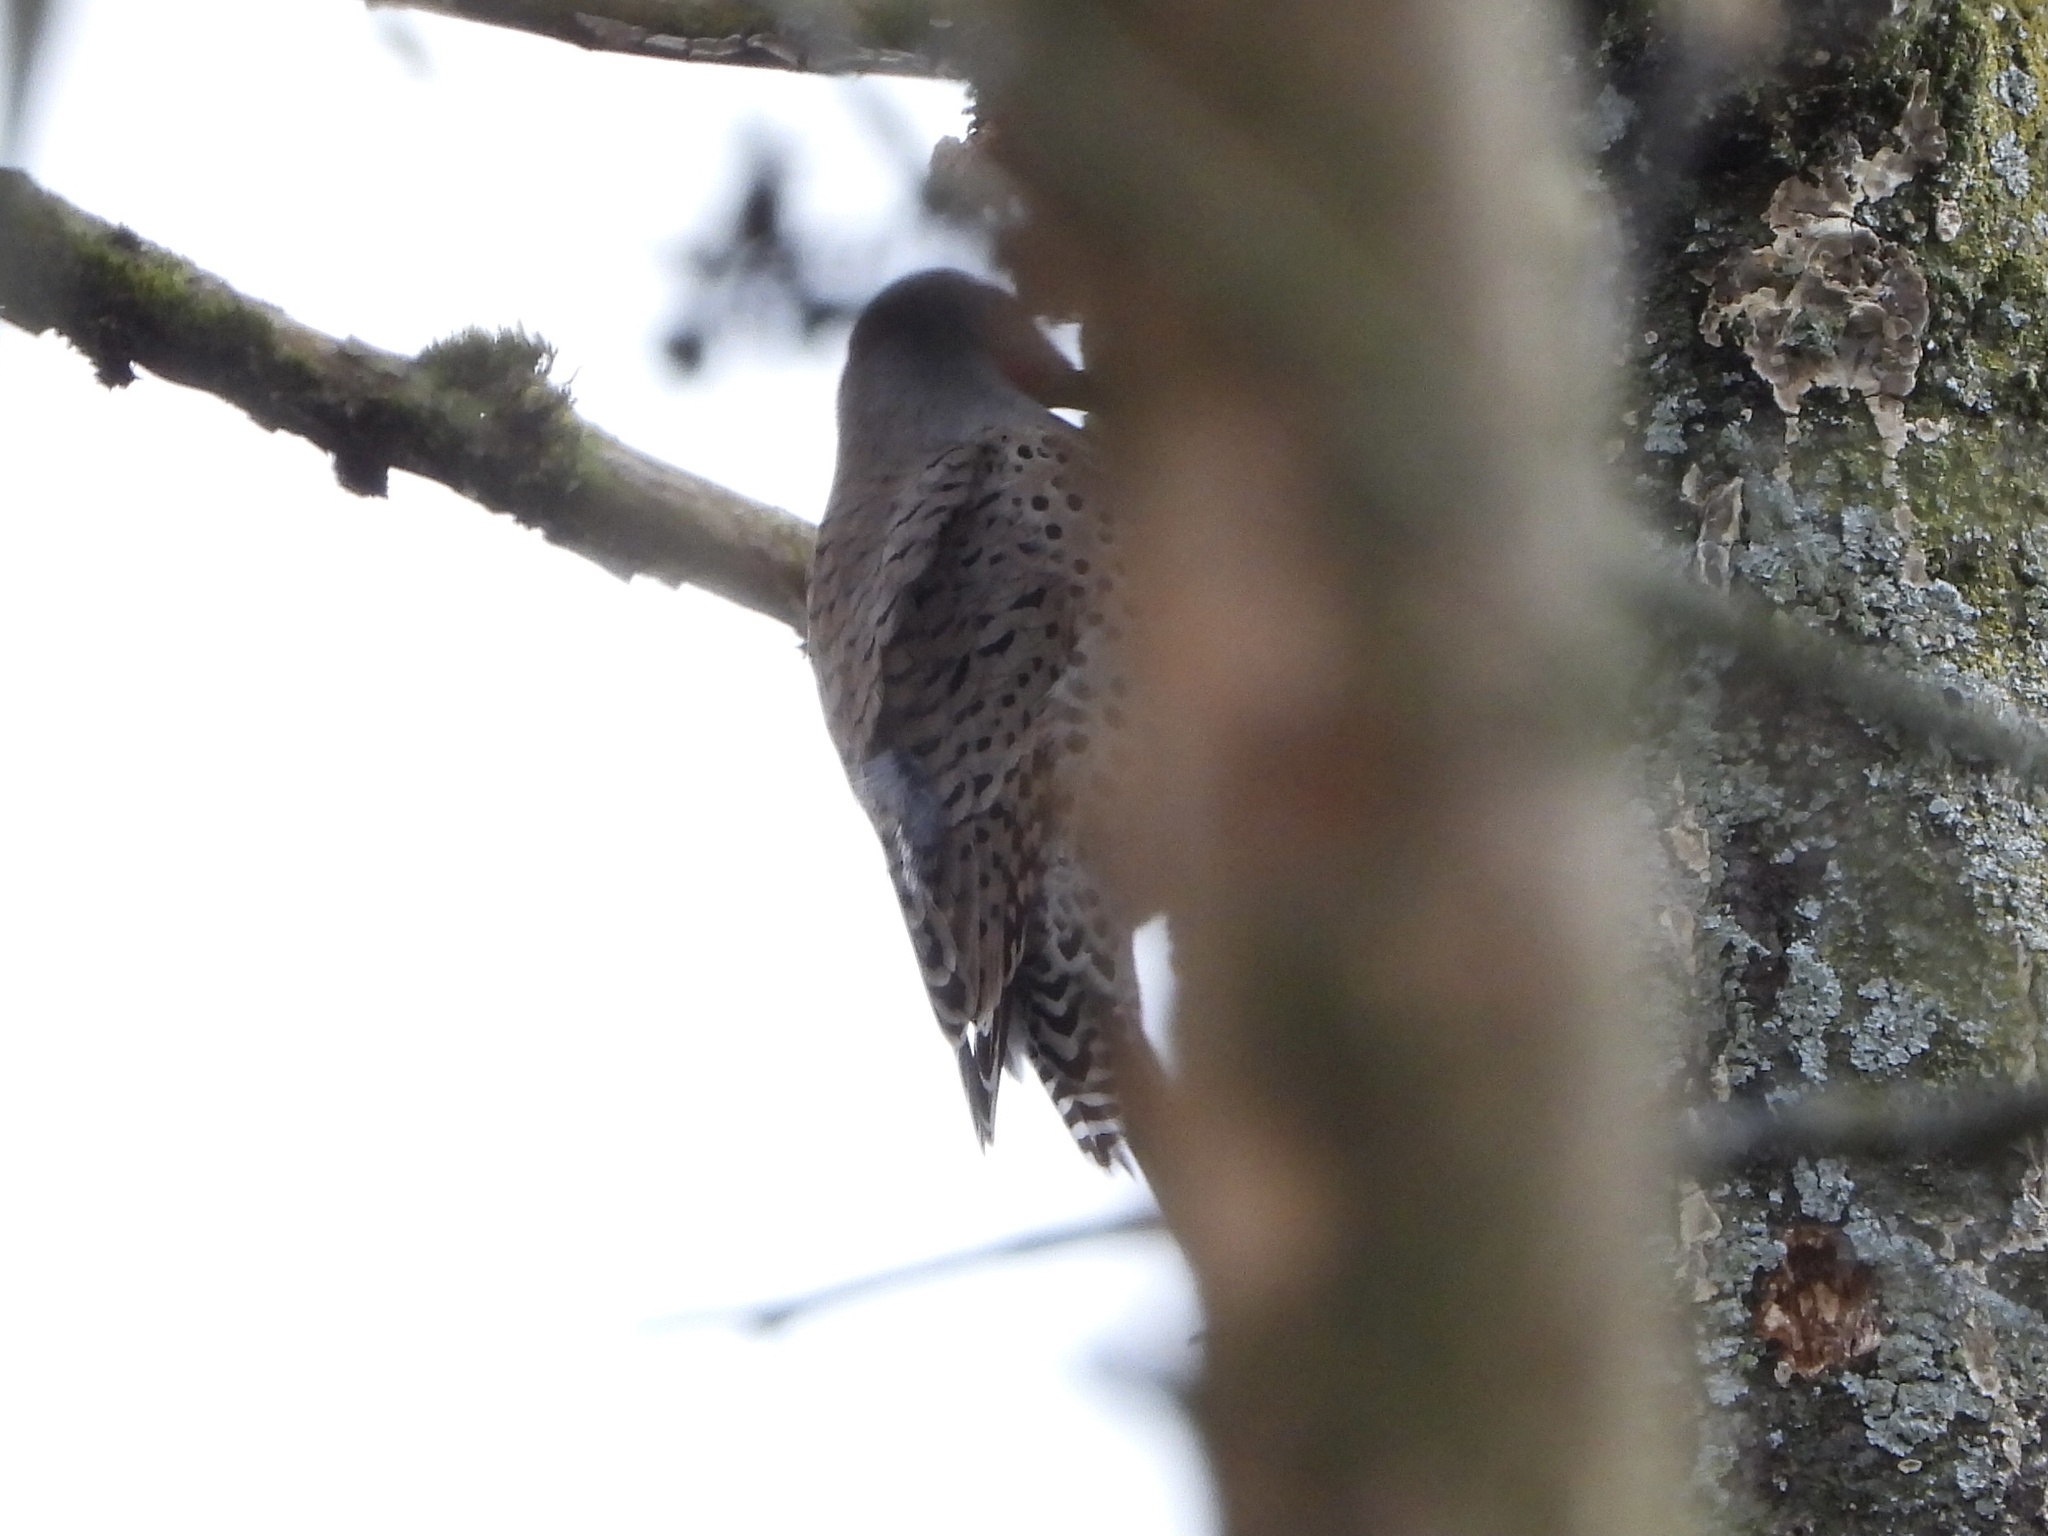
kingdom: Animalia
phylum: Chordata
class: Aves
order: Piciformes
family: Picidae
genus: Colaptes
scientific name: Colaptes auratus
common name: Northern flicker
